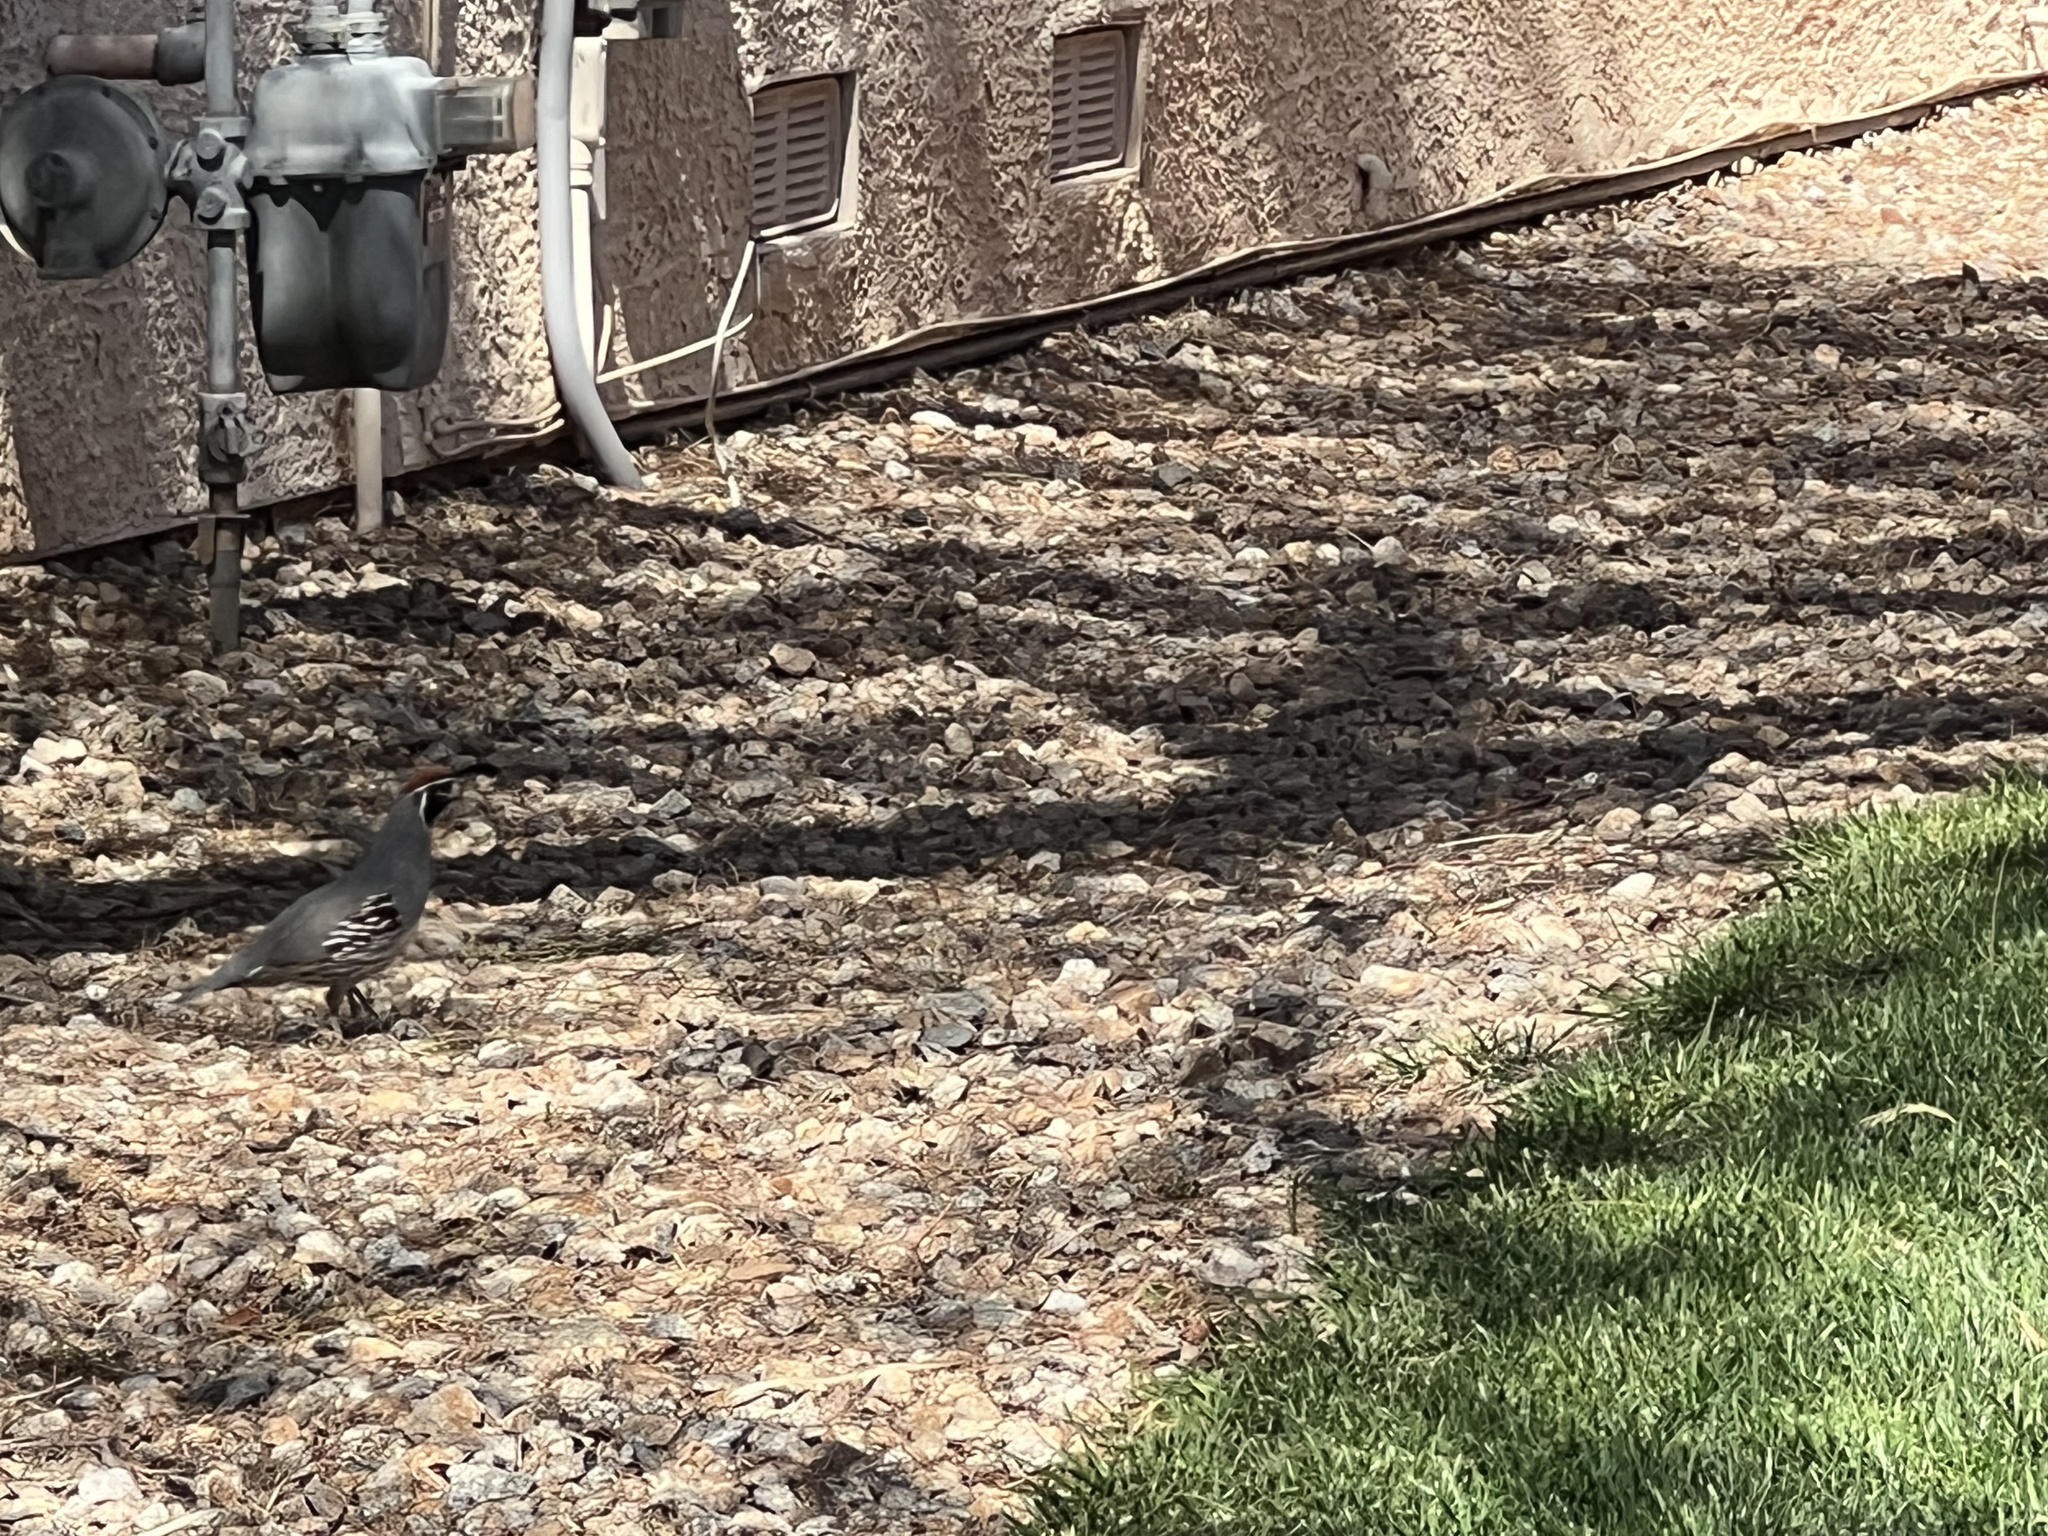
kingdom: Animalia
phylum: Chordata
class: Aves
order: Galliformes
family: Odontophoridae
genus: Callipepla
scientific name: Callipepla gambelii
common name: Gambel's quail
